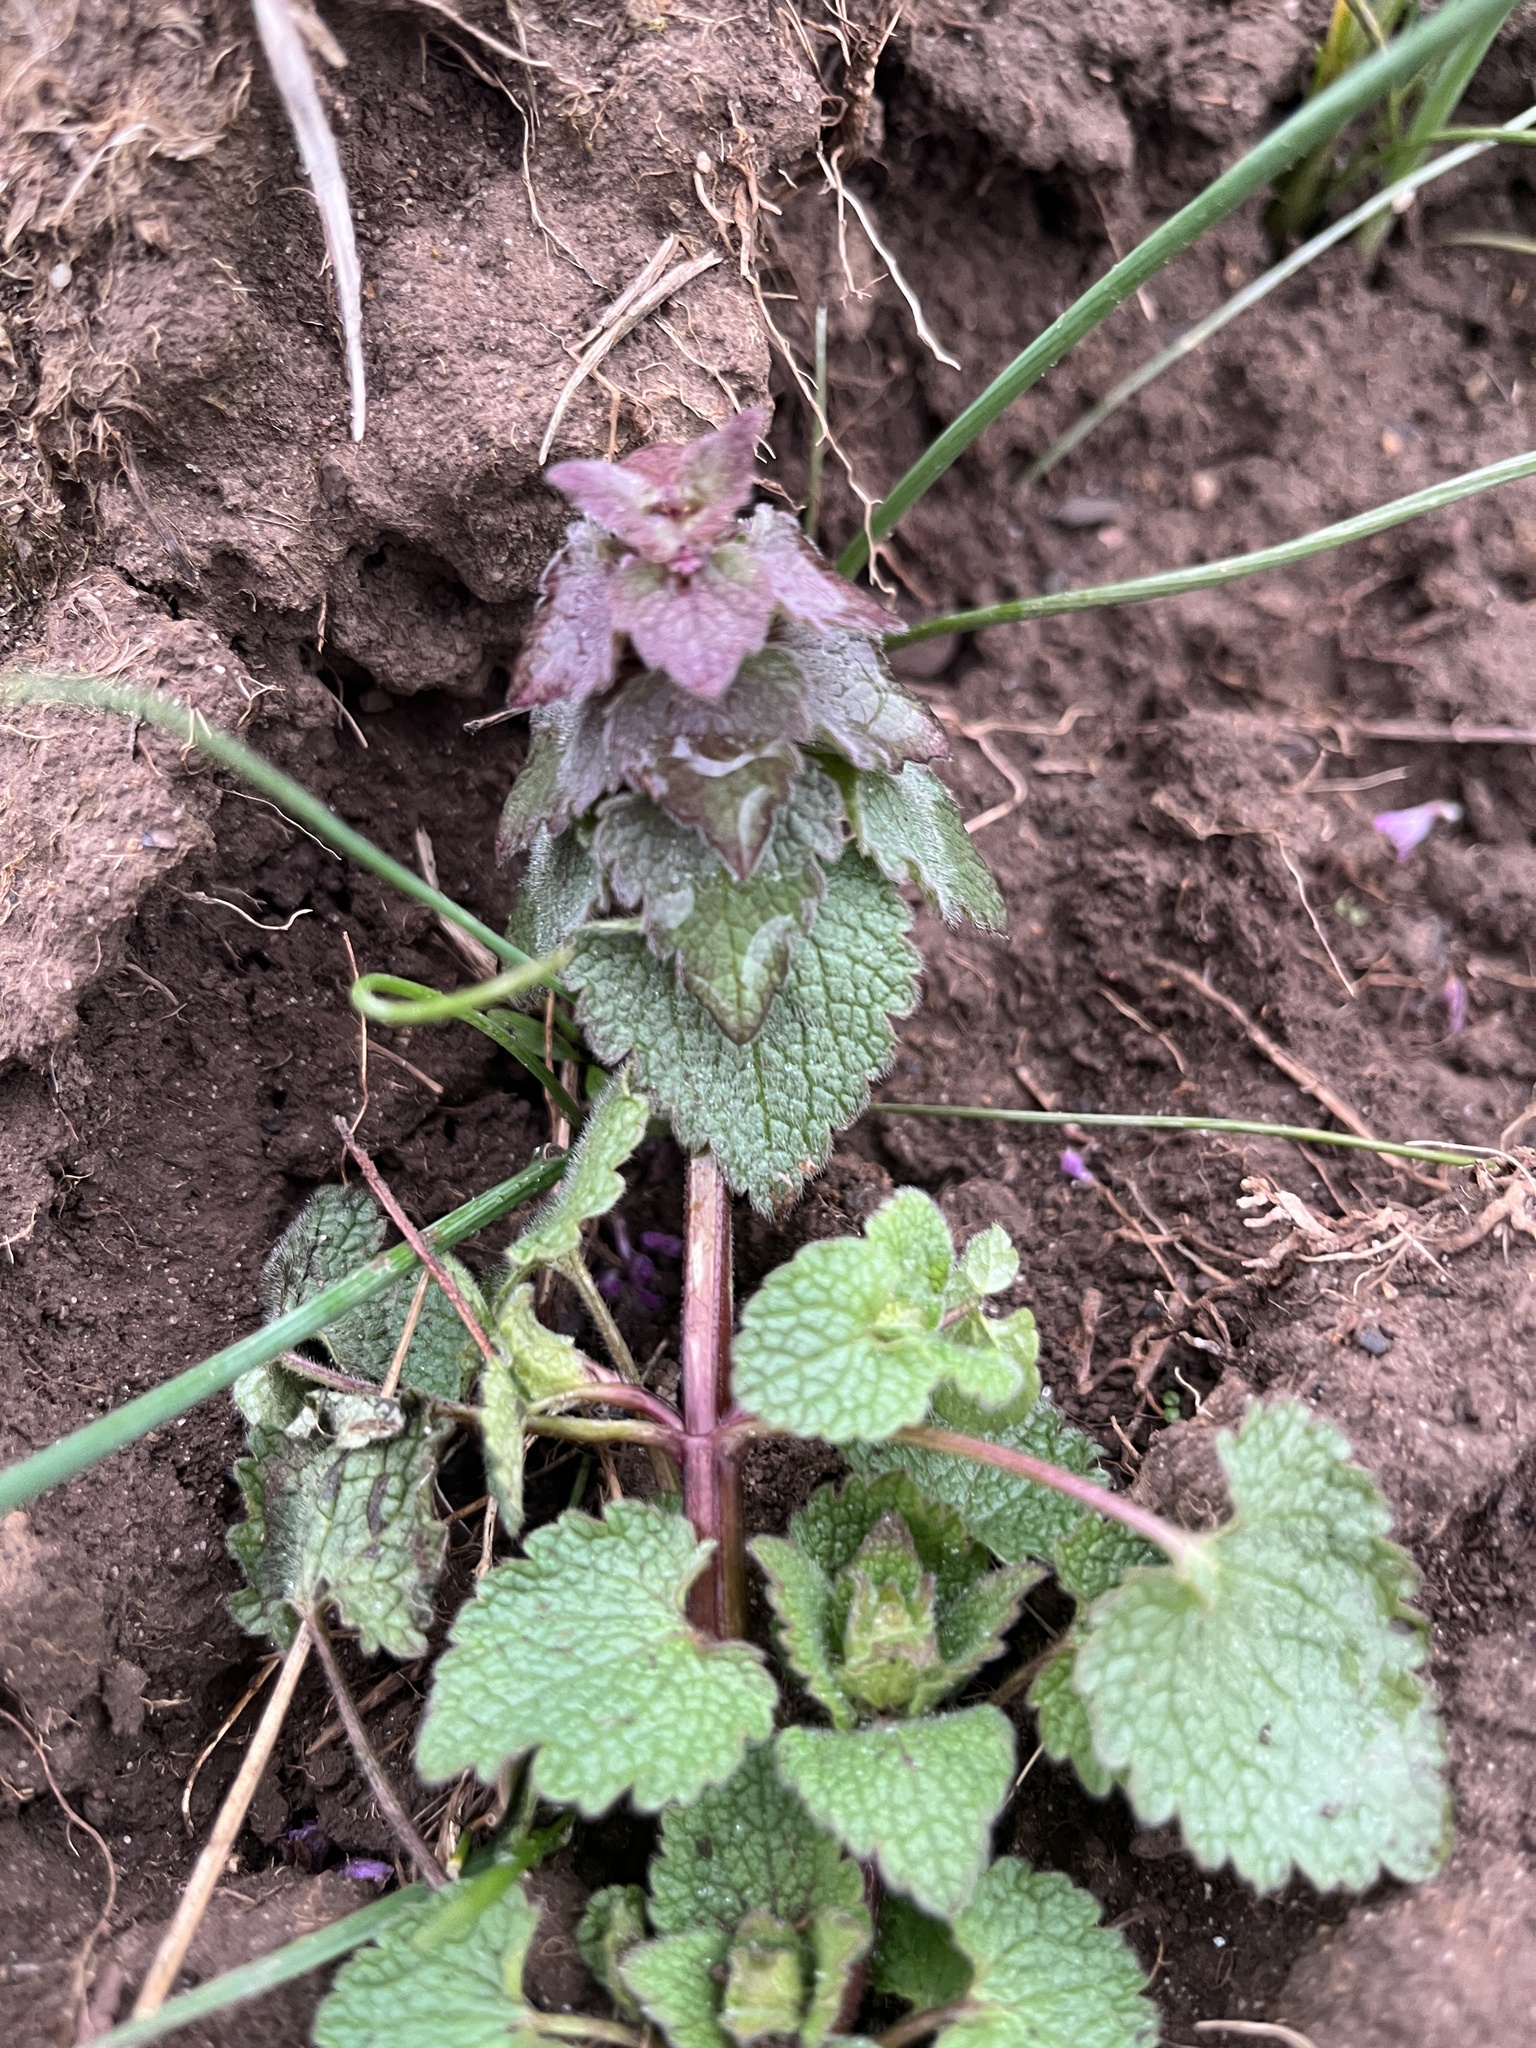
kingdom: Plantae
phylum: Tracheophyta
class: Magnoliopsida
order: Lamiales
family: Lamiaceae
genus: Lamium
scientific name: Lamium purpureum
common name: Red dead-nettle
